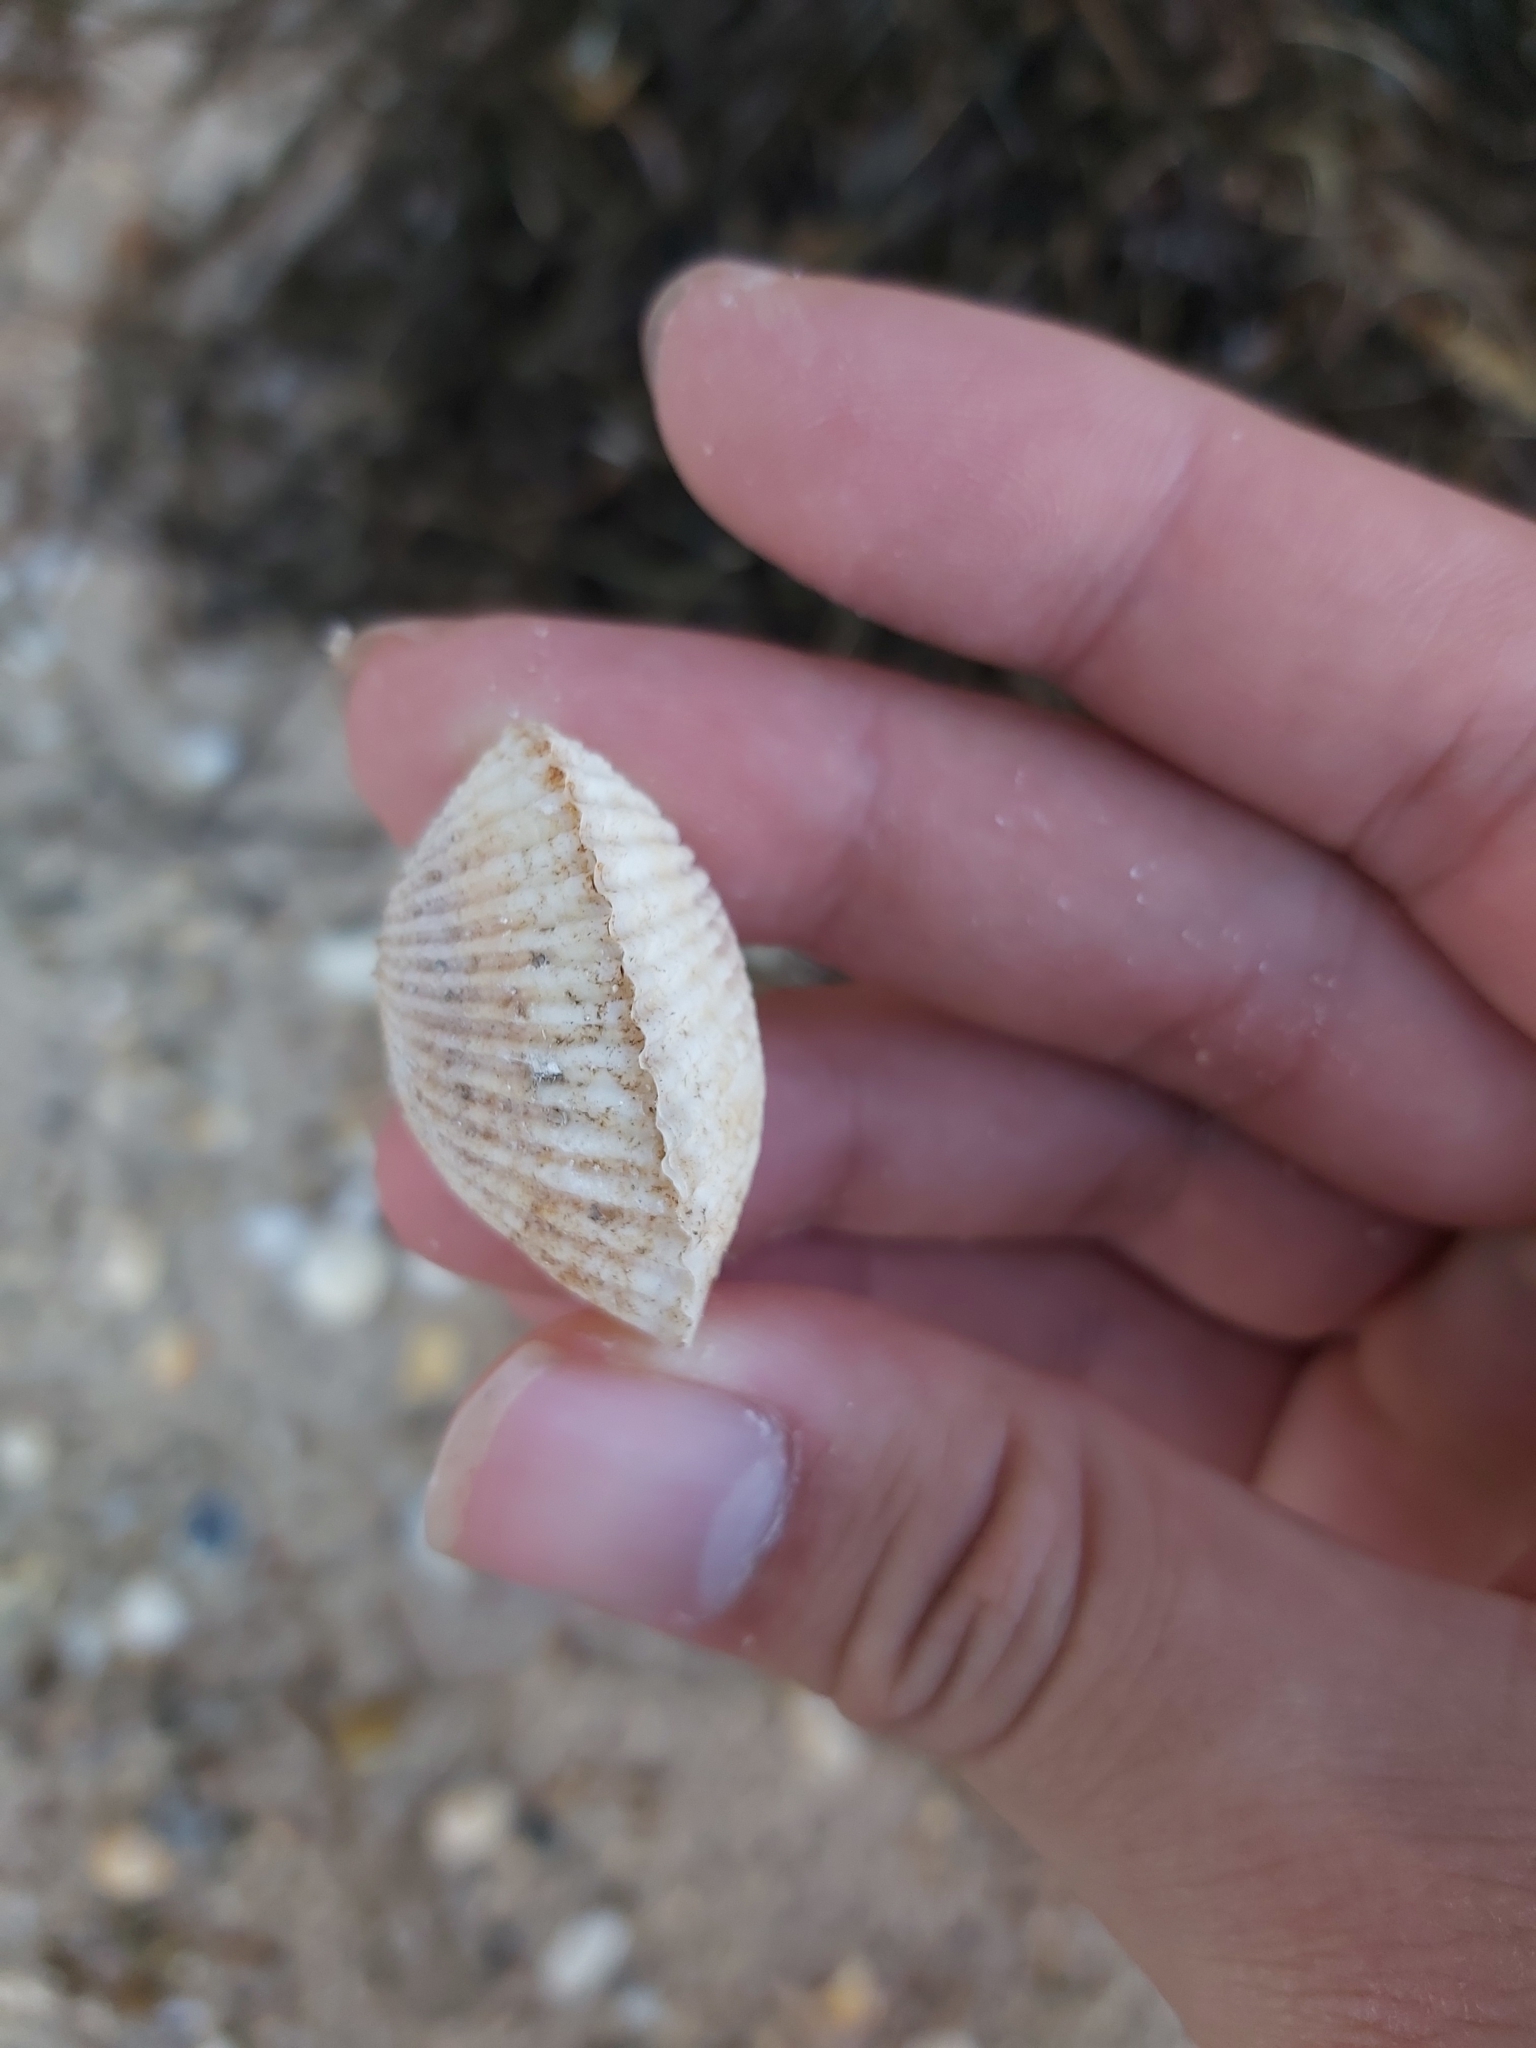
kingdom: Animalia
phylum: Mollusca
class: Bivalvia
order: Arcida
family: Arcidae
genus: Anadara
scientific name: Anadara trapezia
